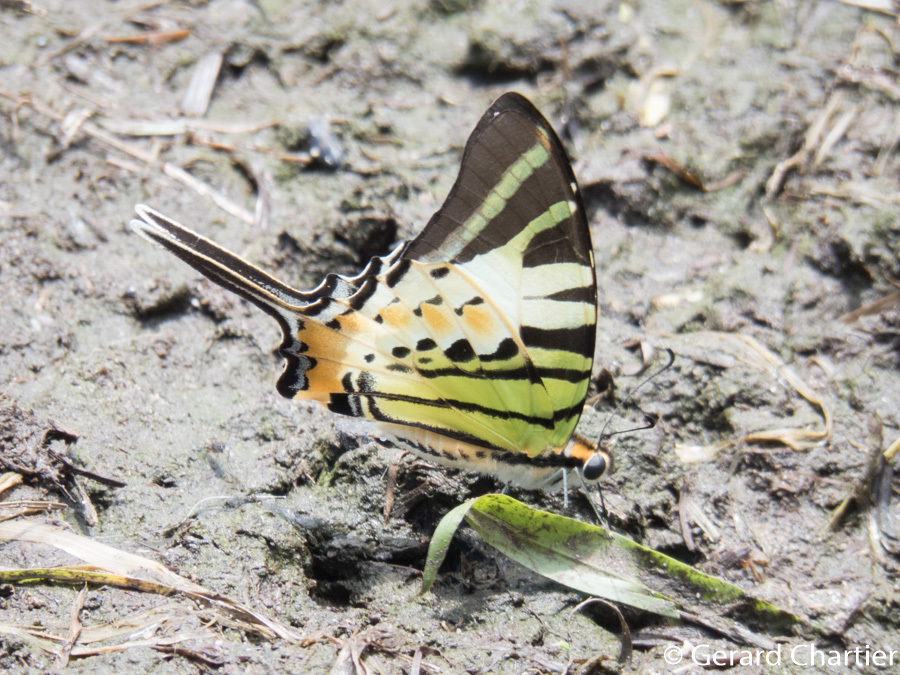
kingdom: Animalia
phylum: Arthropoda
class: Insecta
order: Lepidoptera
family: Papilionidae
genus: Graphium
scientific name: Graphium antiphates
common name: Fivebar swordtail
